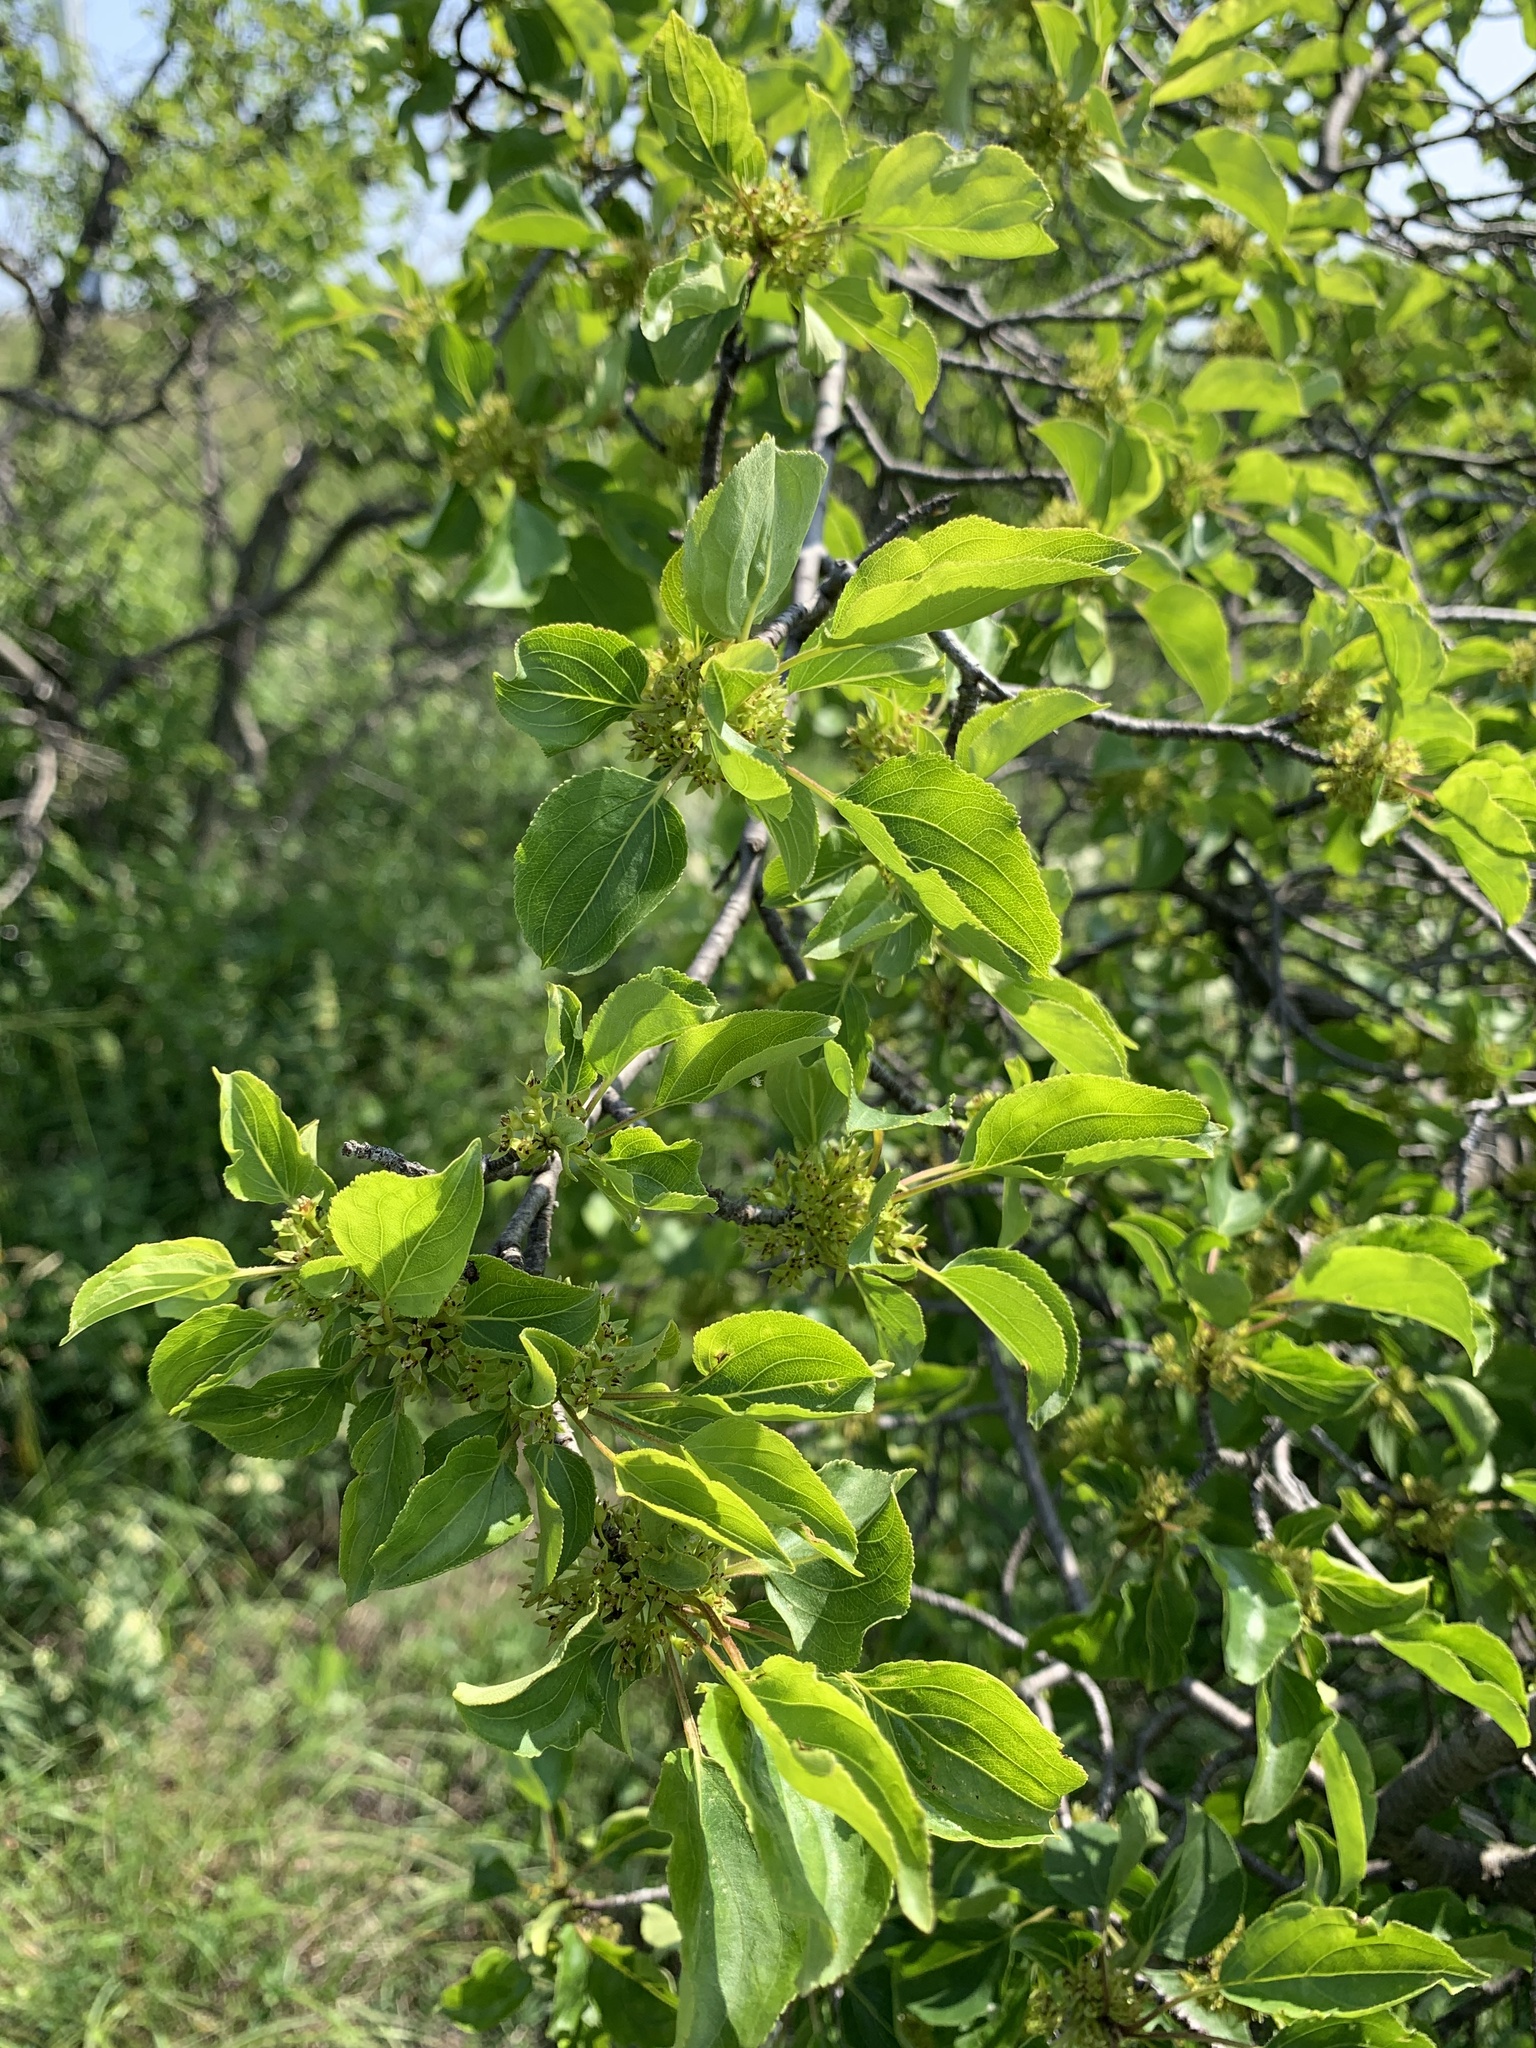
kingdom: Plantae
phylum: Tracheophyta
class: Magnoliopsida
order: Rosales
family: Rhamnaceae
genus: Rhamnus
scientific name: Rhamnus cathartica
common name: Common buckthorn
